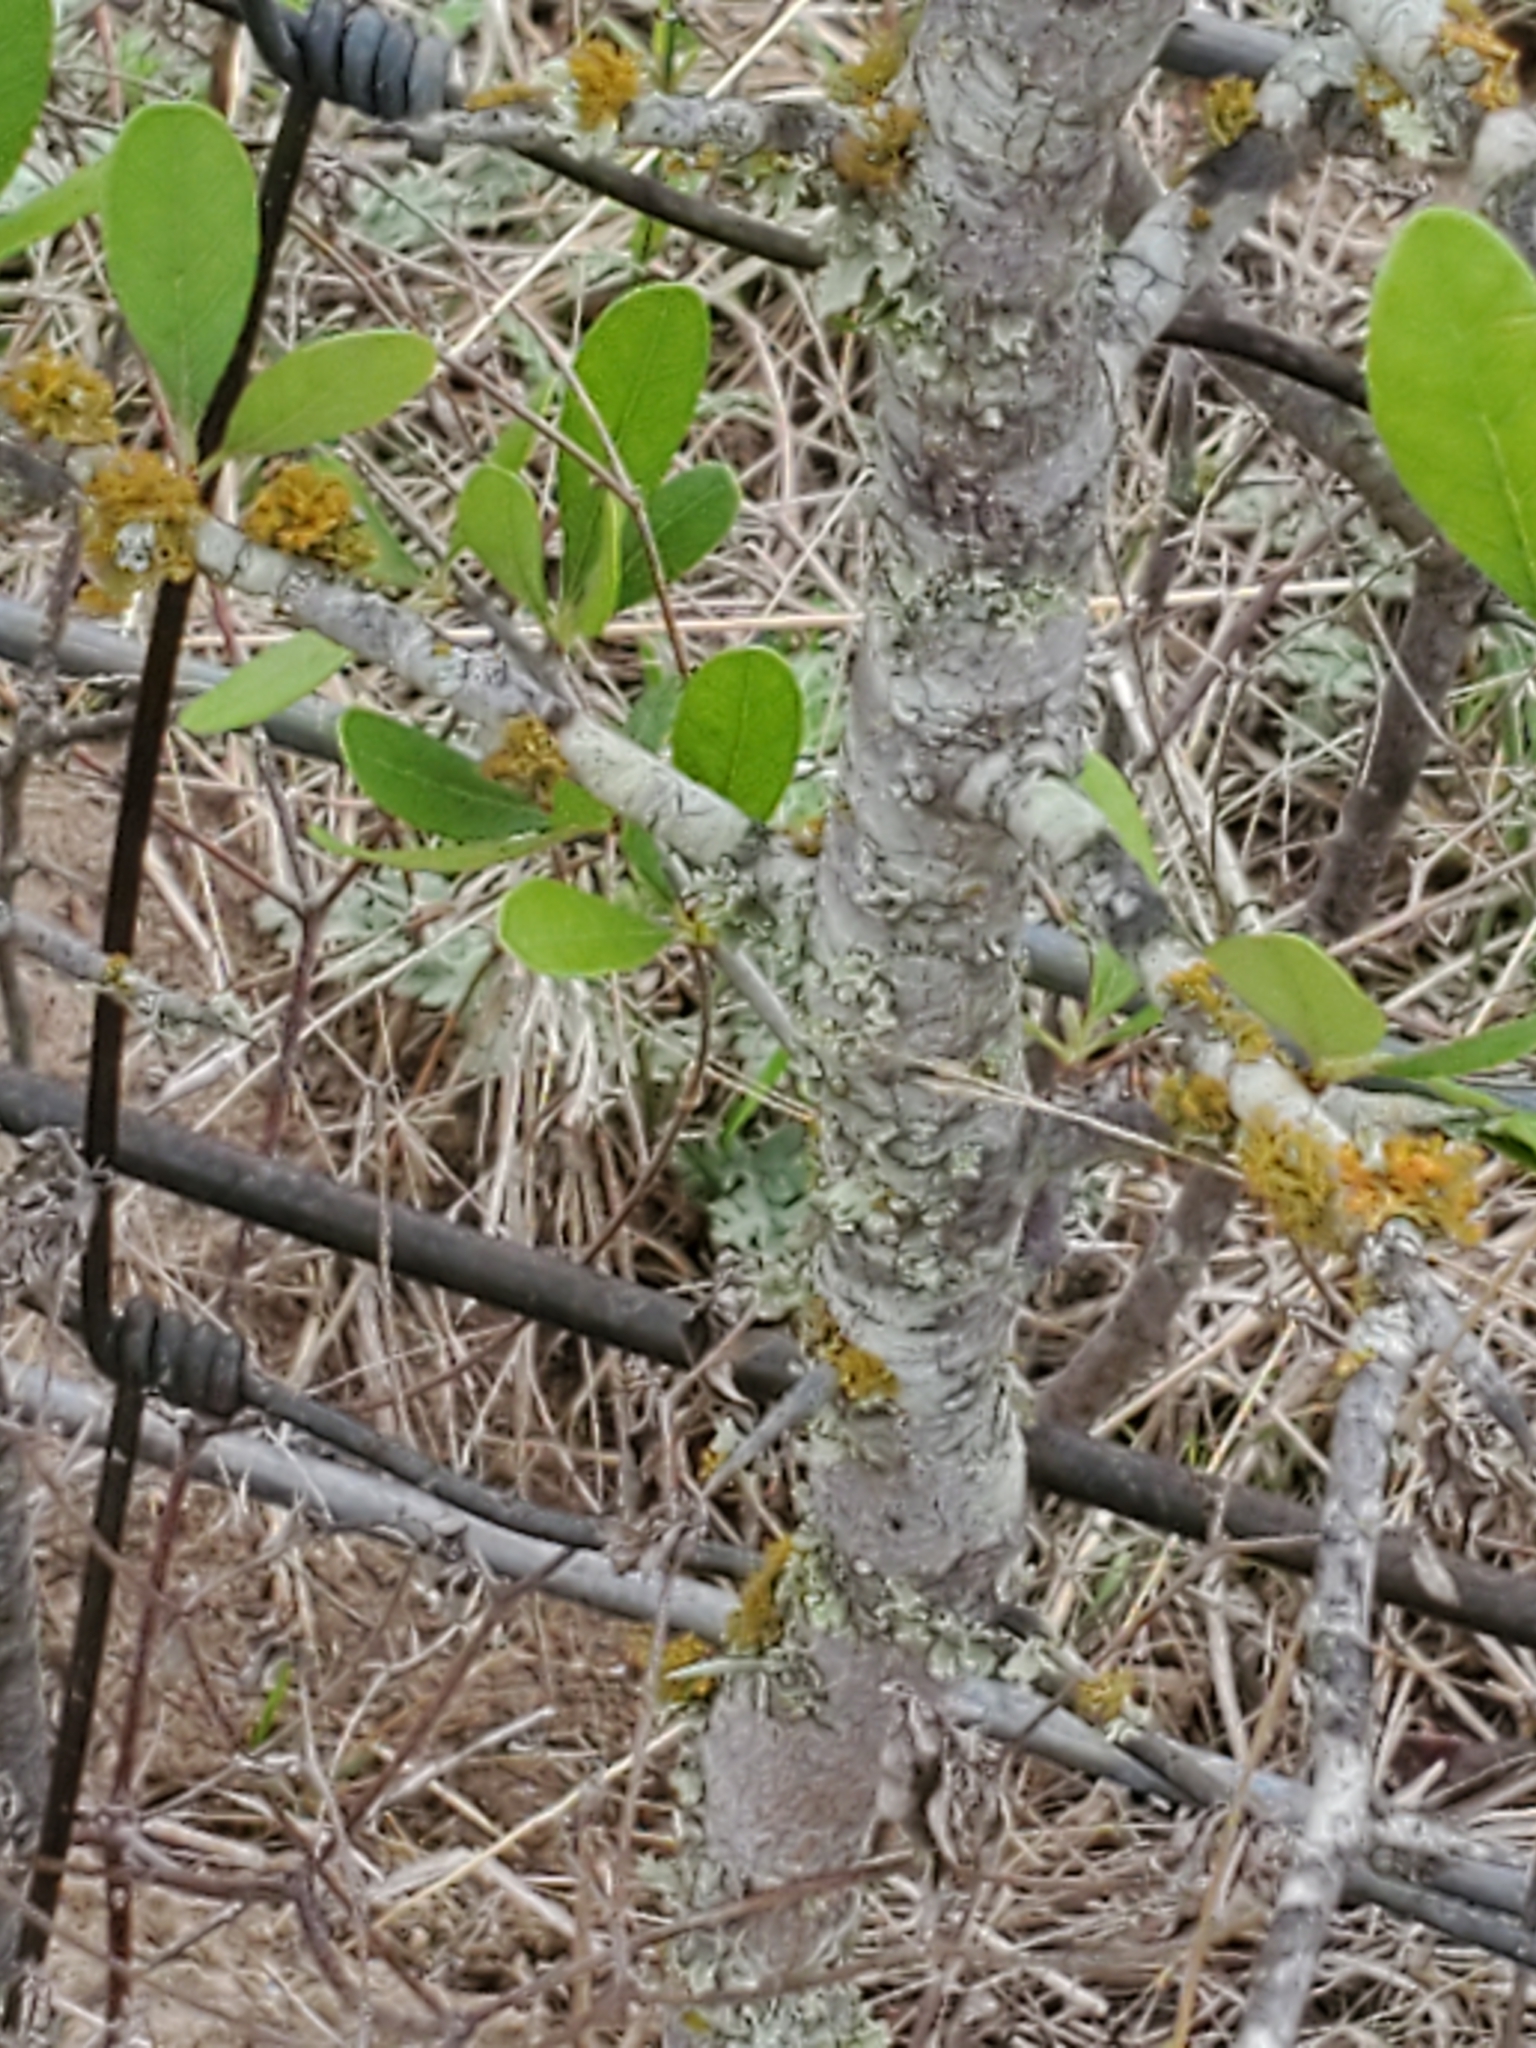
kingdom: Plantae
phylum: Tracheophyta
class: Magnoliopsida
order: Ericales
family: Sapotaceae
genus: Sideroxylon
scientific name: Sideroxylon lanuginosum
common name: Chittamwood
